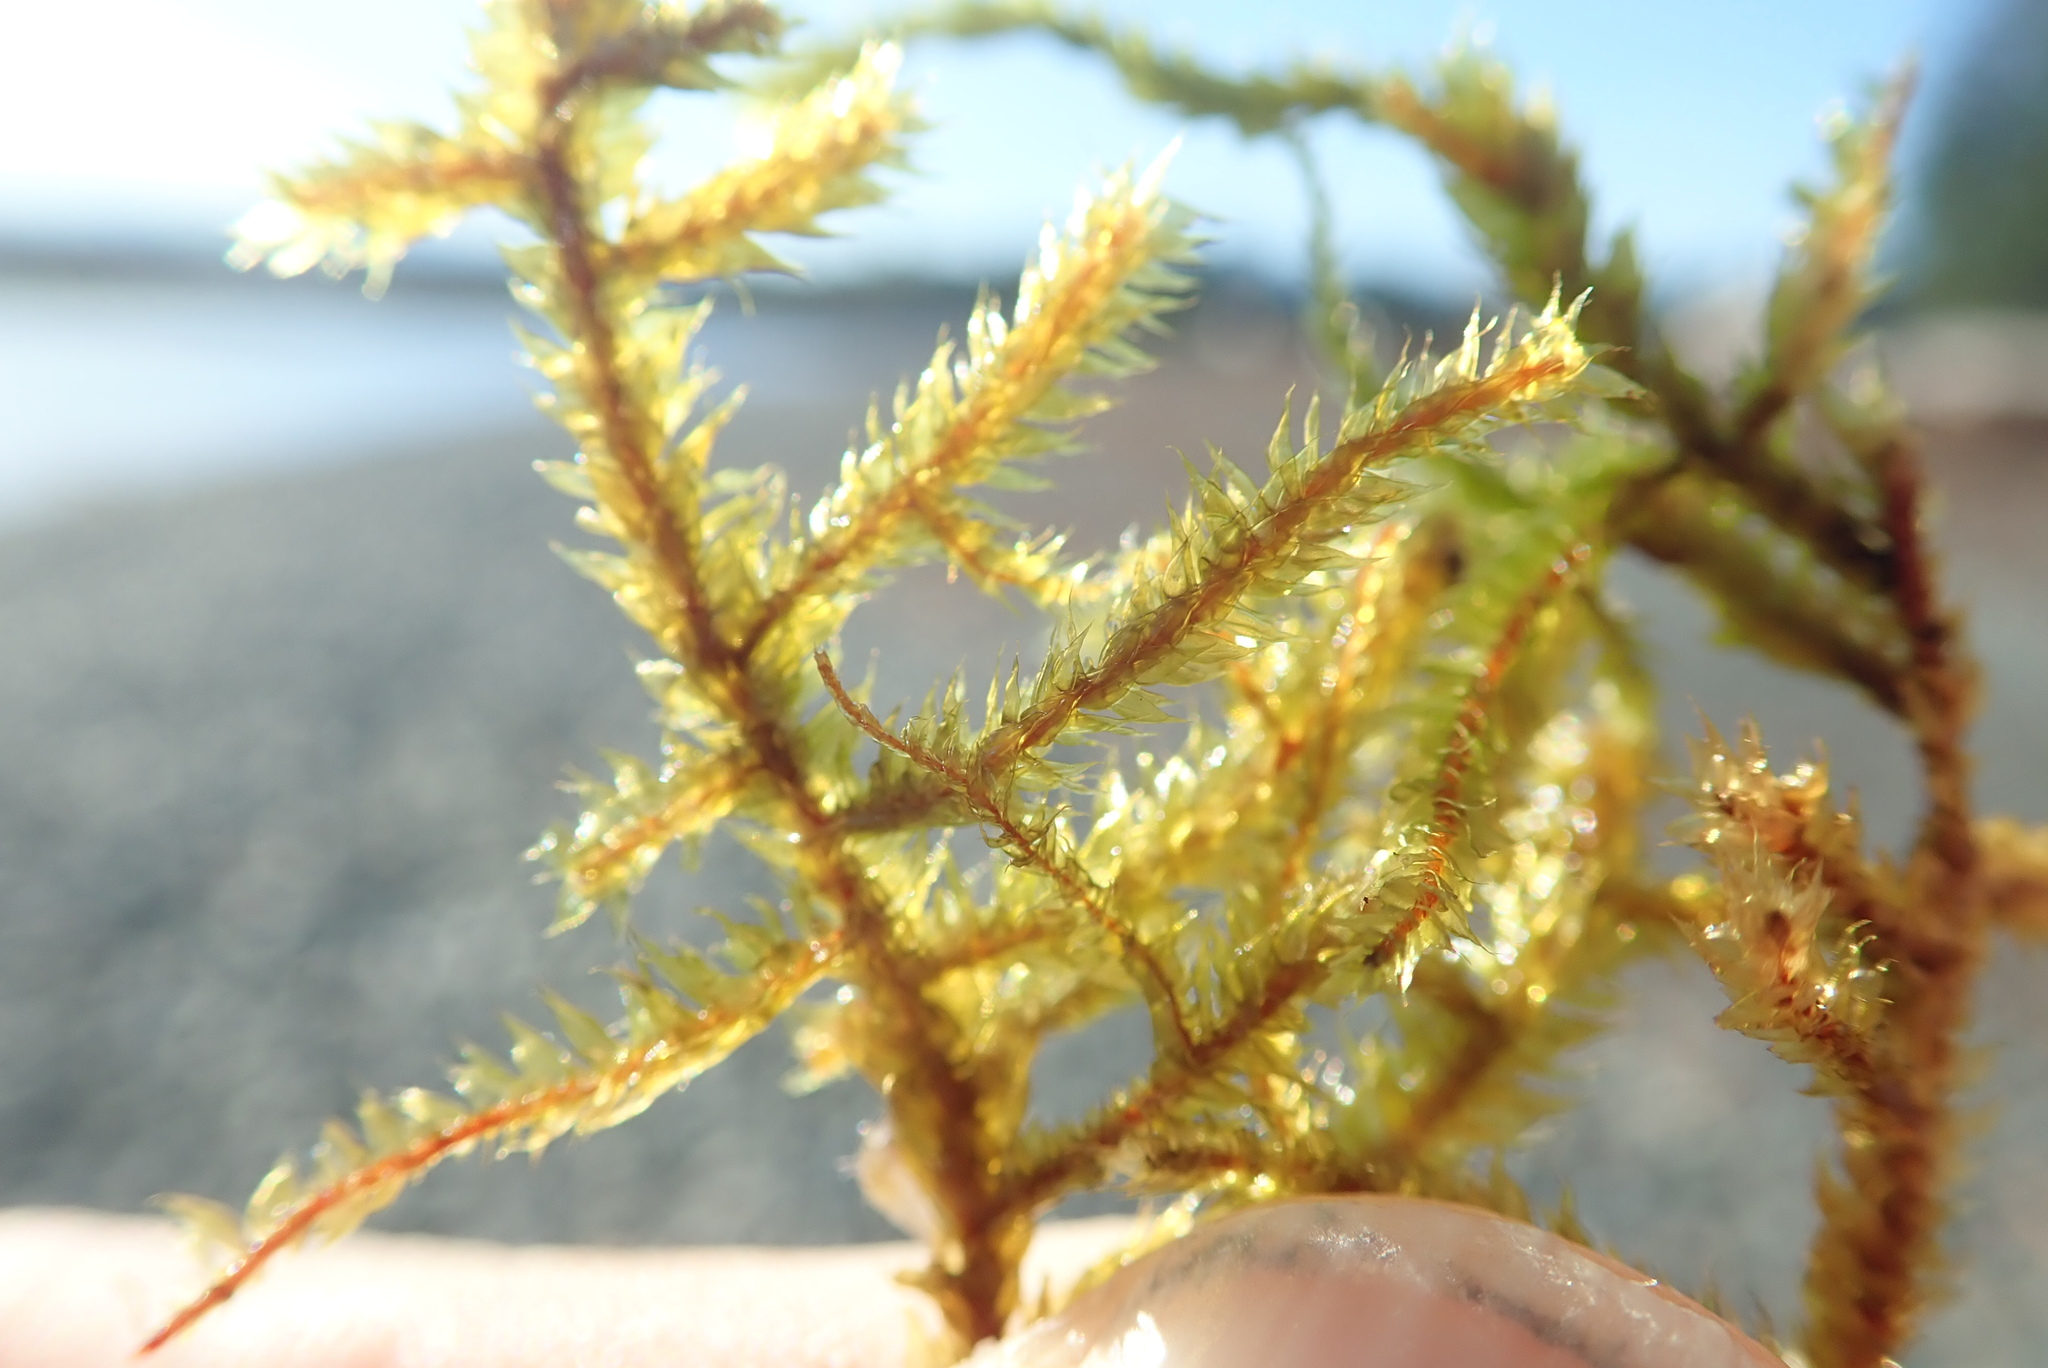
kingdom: Plantae
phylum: Bryophyta
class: Bryopsida
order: Hypnales
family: Antitrichiaceae
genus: Antitrichia
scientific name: Antitrichia curtipendula
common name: Pendulous wing-moss
